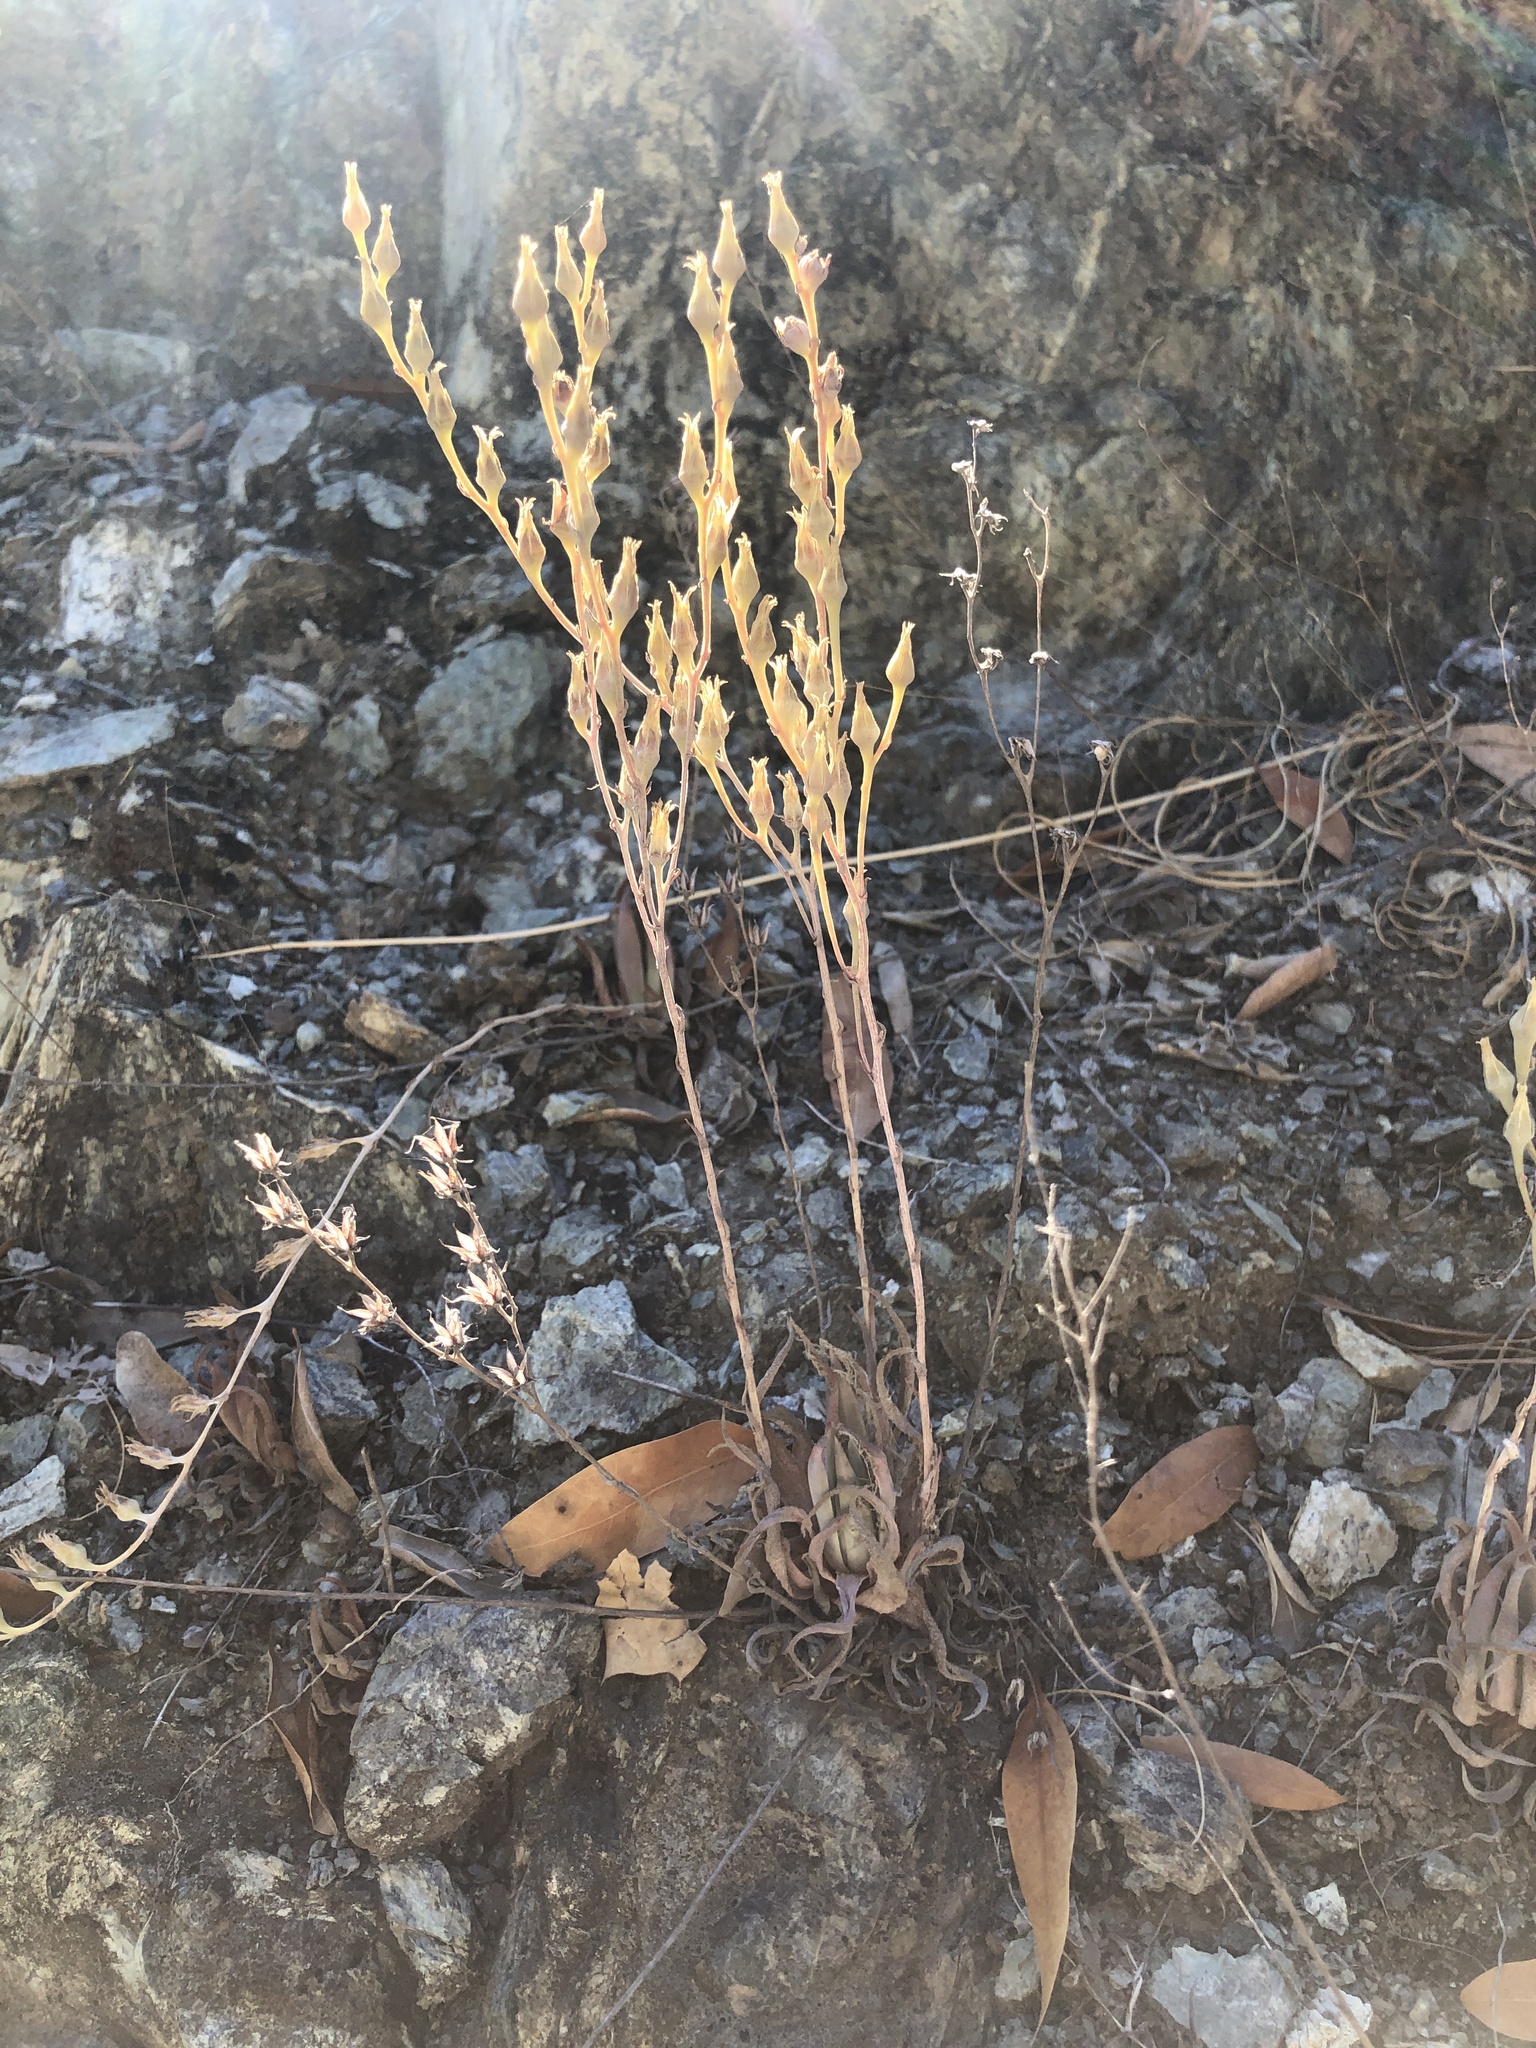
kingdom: Plantae
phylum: Tracheophyta
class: Magnoliopsida
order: Saxifragales
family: Crassulaceae
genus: Dudleya
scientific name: Dudleya abramsii
